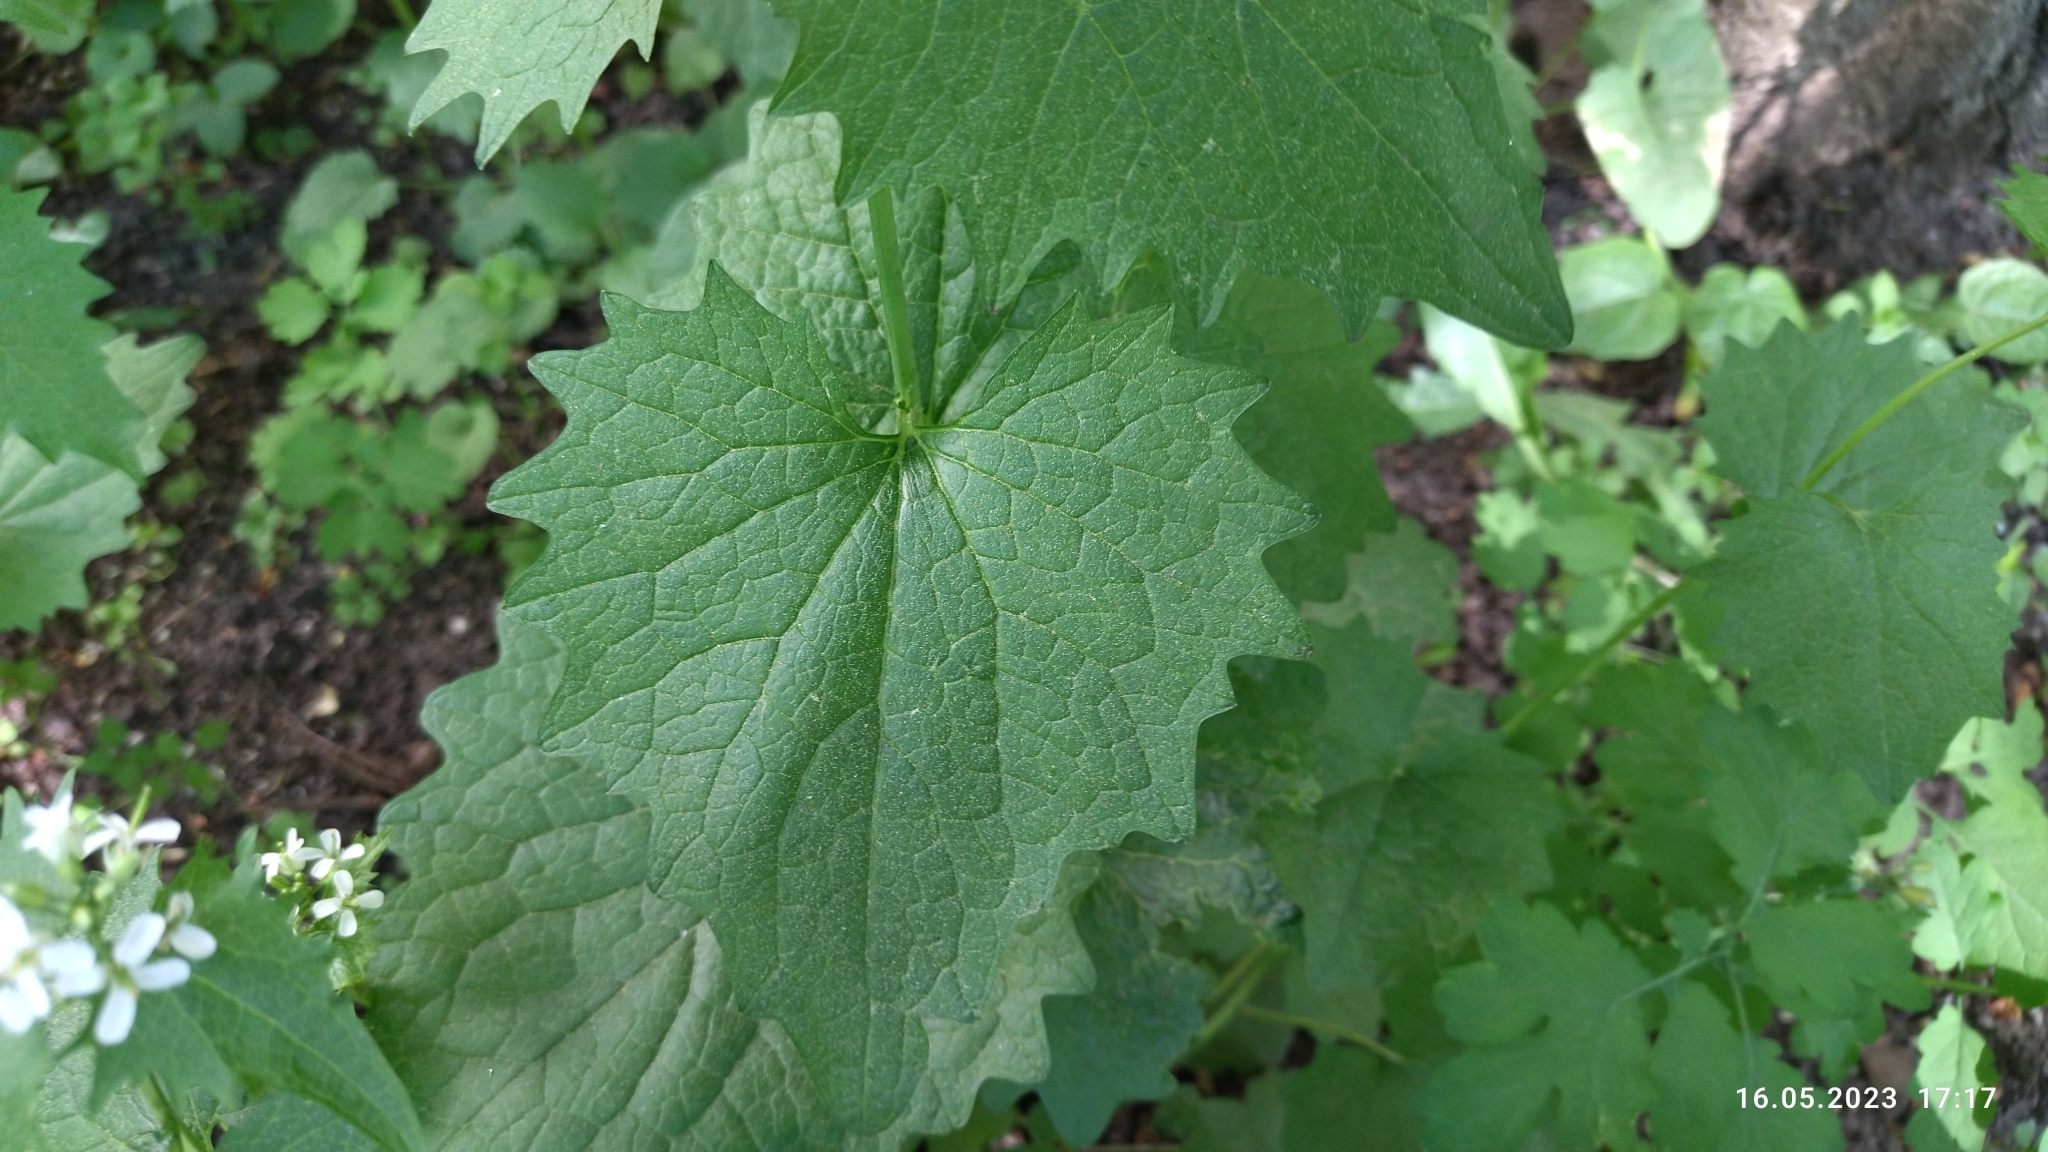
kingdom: Plantae
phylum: Tracheophyta
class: Magnoliopsida
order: Brassicales
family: Brassicaceae
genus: Alliaria
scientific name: Alliaria petiolata
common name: Garlic mustard
